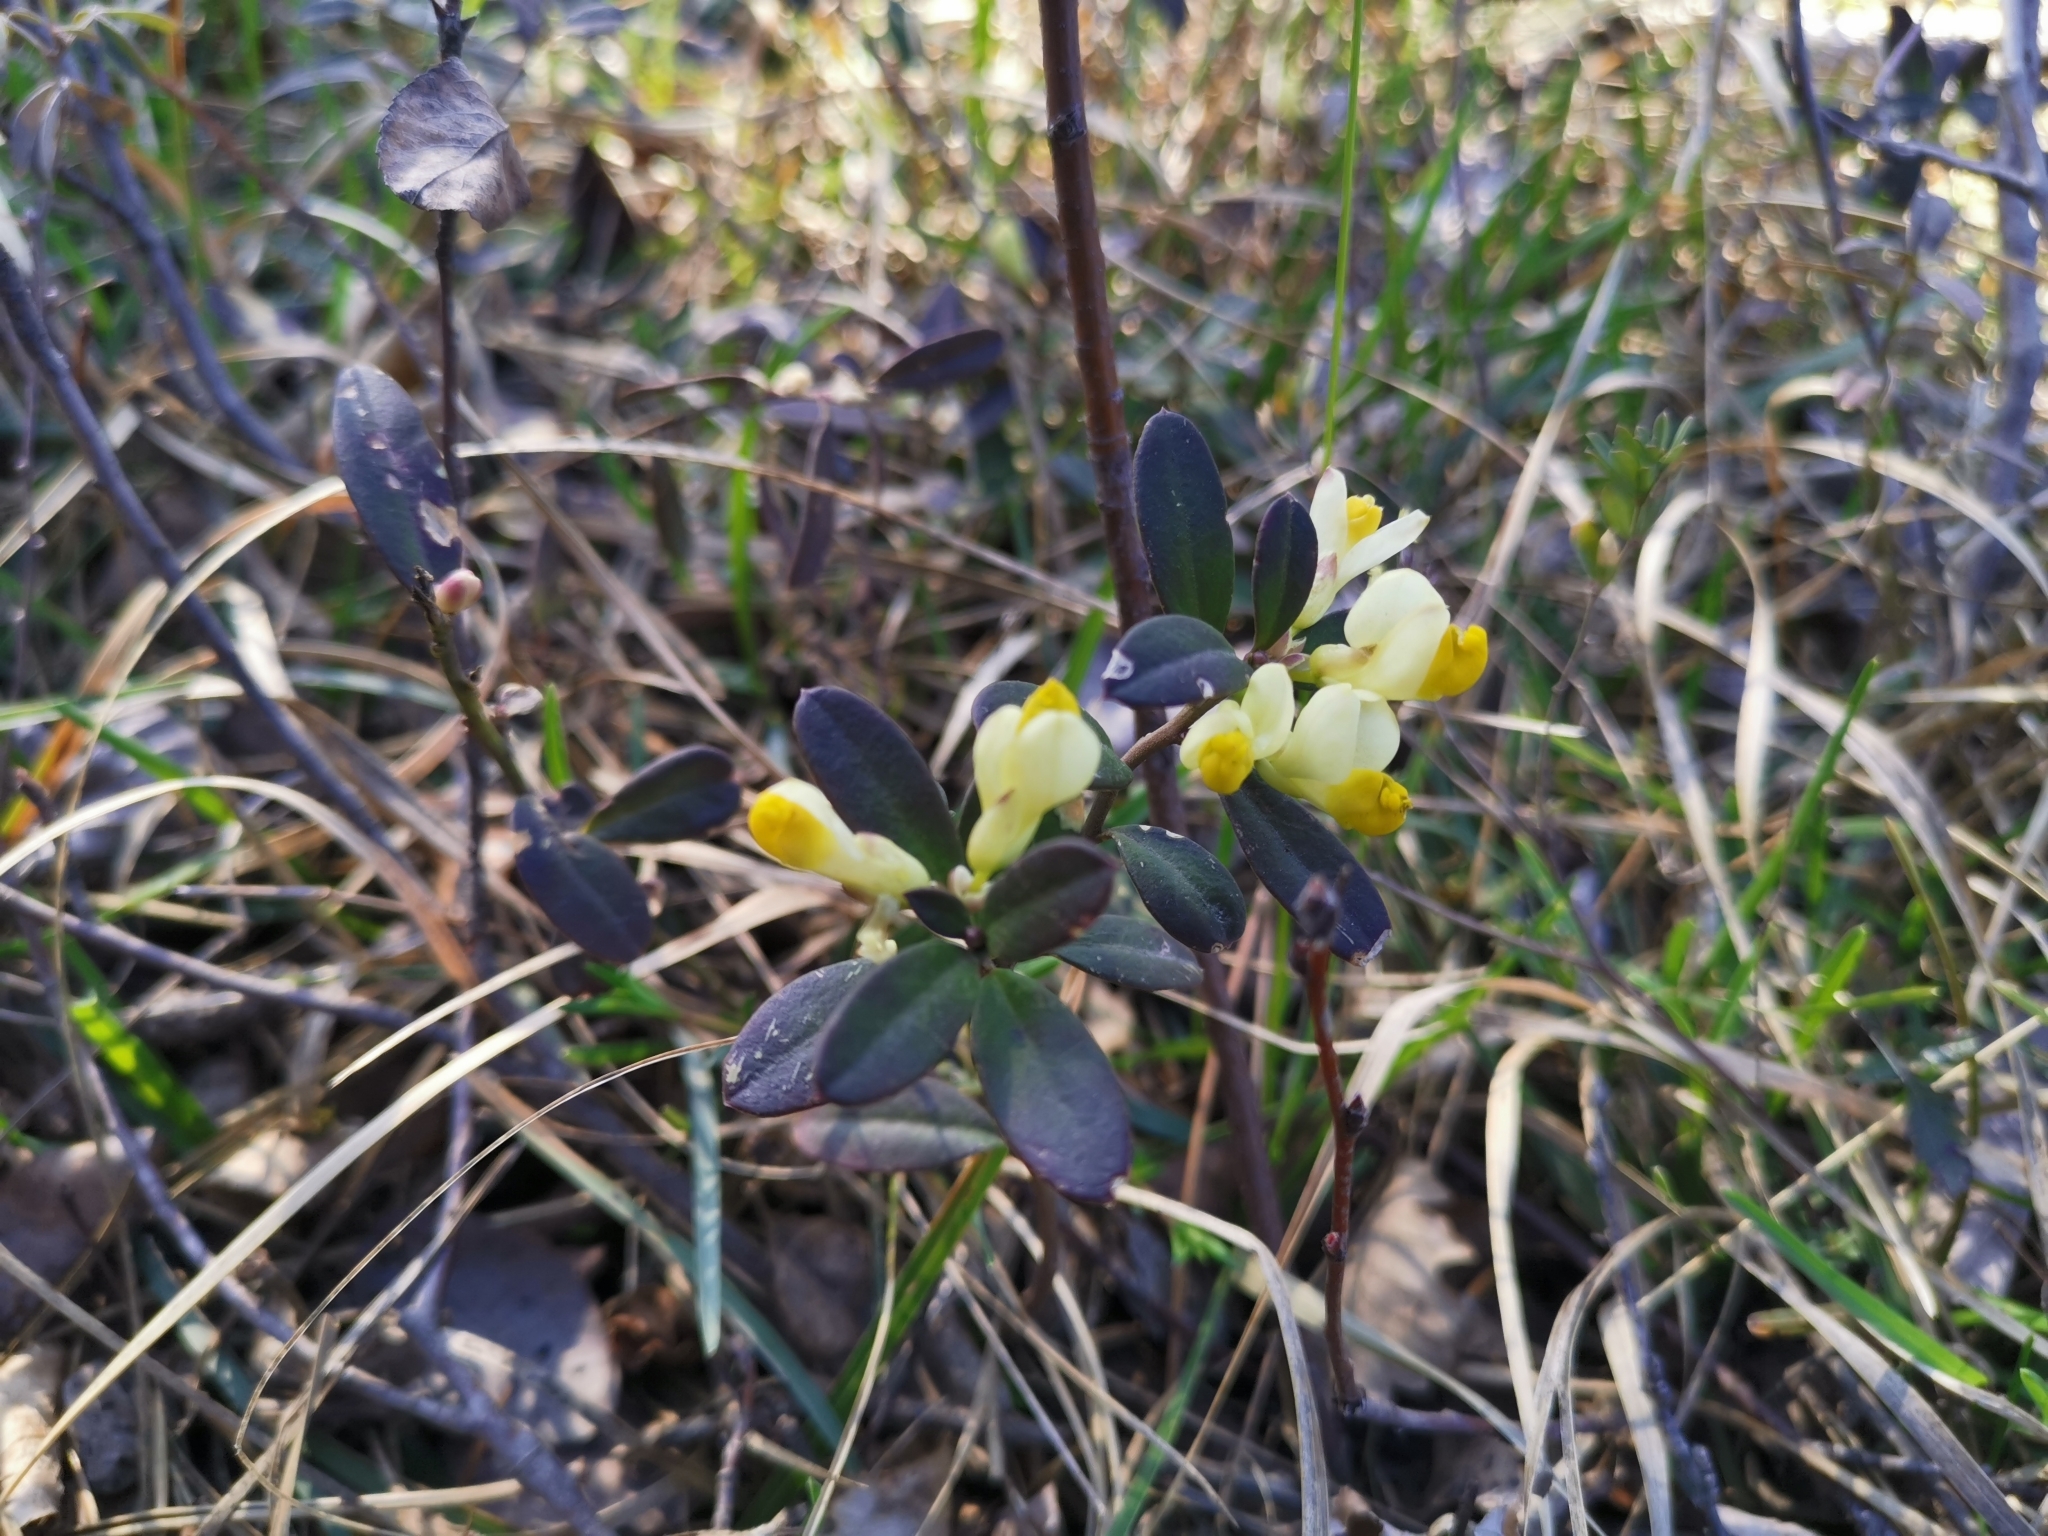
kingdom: Plantae
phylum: Tracheophyta
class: Magnoliopsida
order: Fabales
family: Polygalaceae
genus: Polygaloides
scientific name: Polygaloides chamaebuxus
